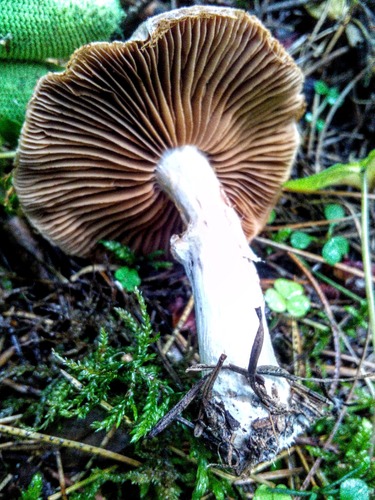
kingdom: Fungi
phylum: Basidiomycota
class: Agaricomycetes
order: Agaricales
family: Cortinariaceae
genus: Cortinarius
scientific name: Cortinarius
